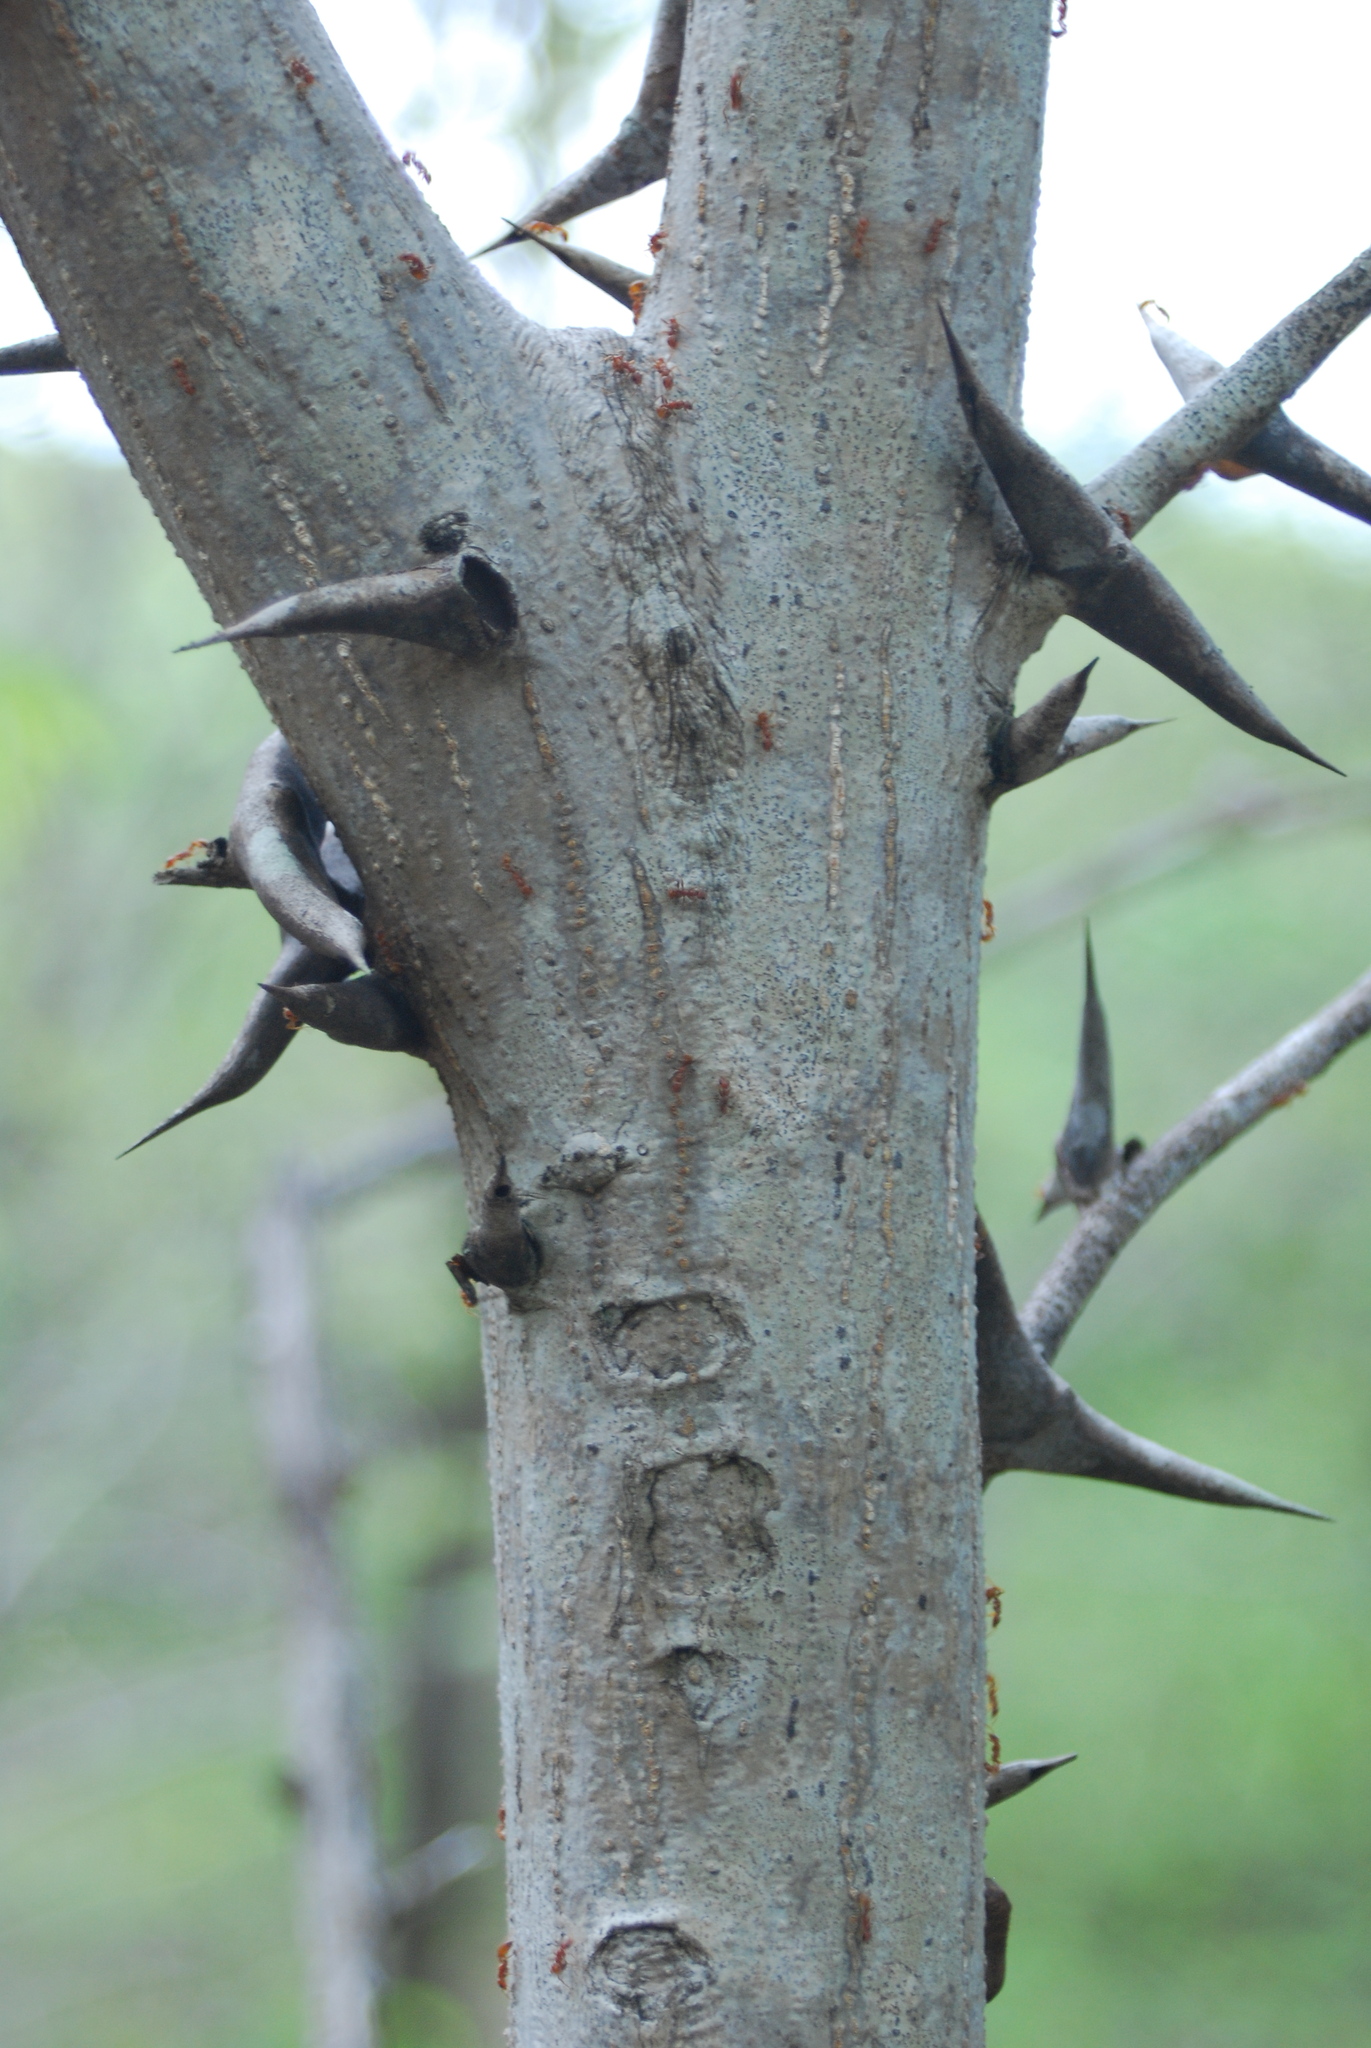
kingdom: Plantae
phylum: Tracheophyta
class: Magnoliopsida
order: Fabales
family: Fabaceae
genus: Vachellia
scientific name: Vachellia cornigera
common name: Bullhorn wattle
